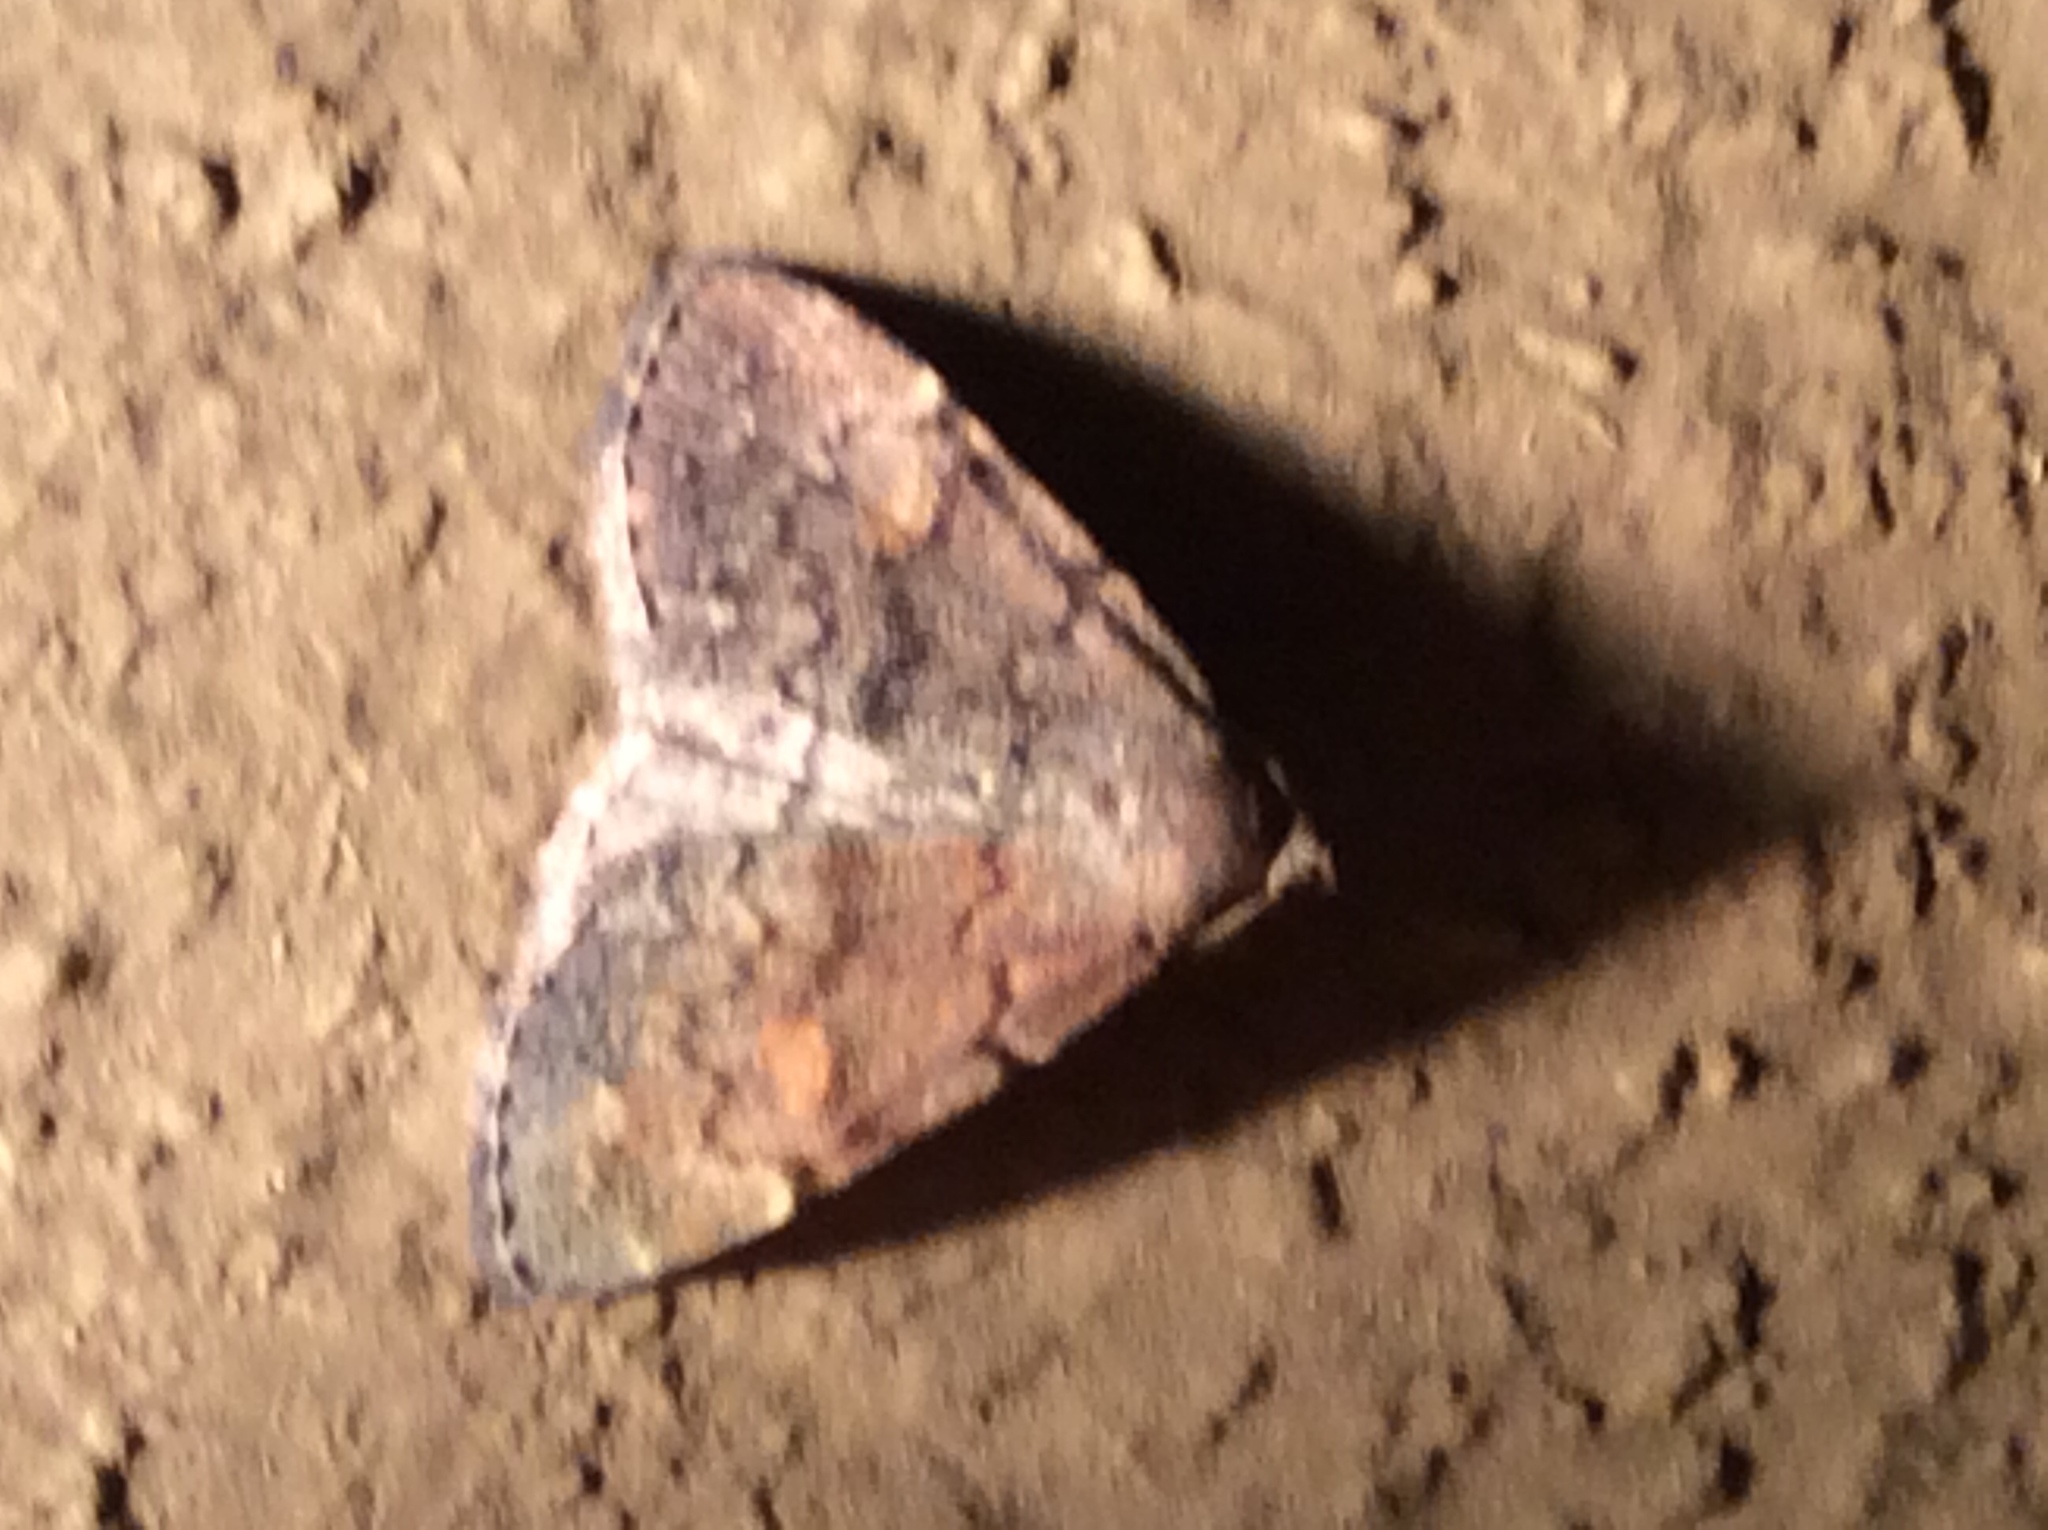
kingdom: Animalia
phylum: Arthropoda
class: Insecta
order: Lepidoptera
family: Erebidae
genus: Idia
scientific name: Idia aemula
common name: Common idia moth
